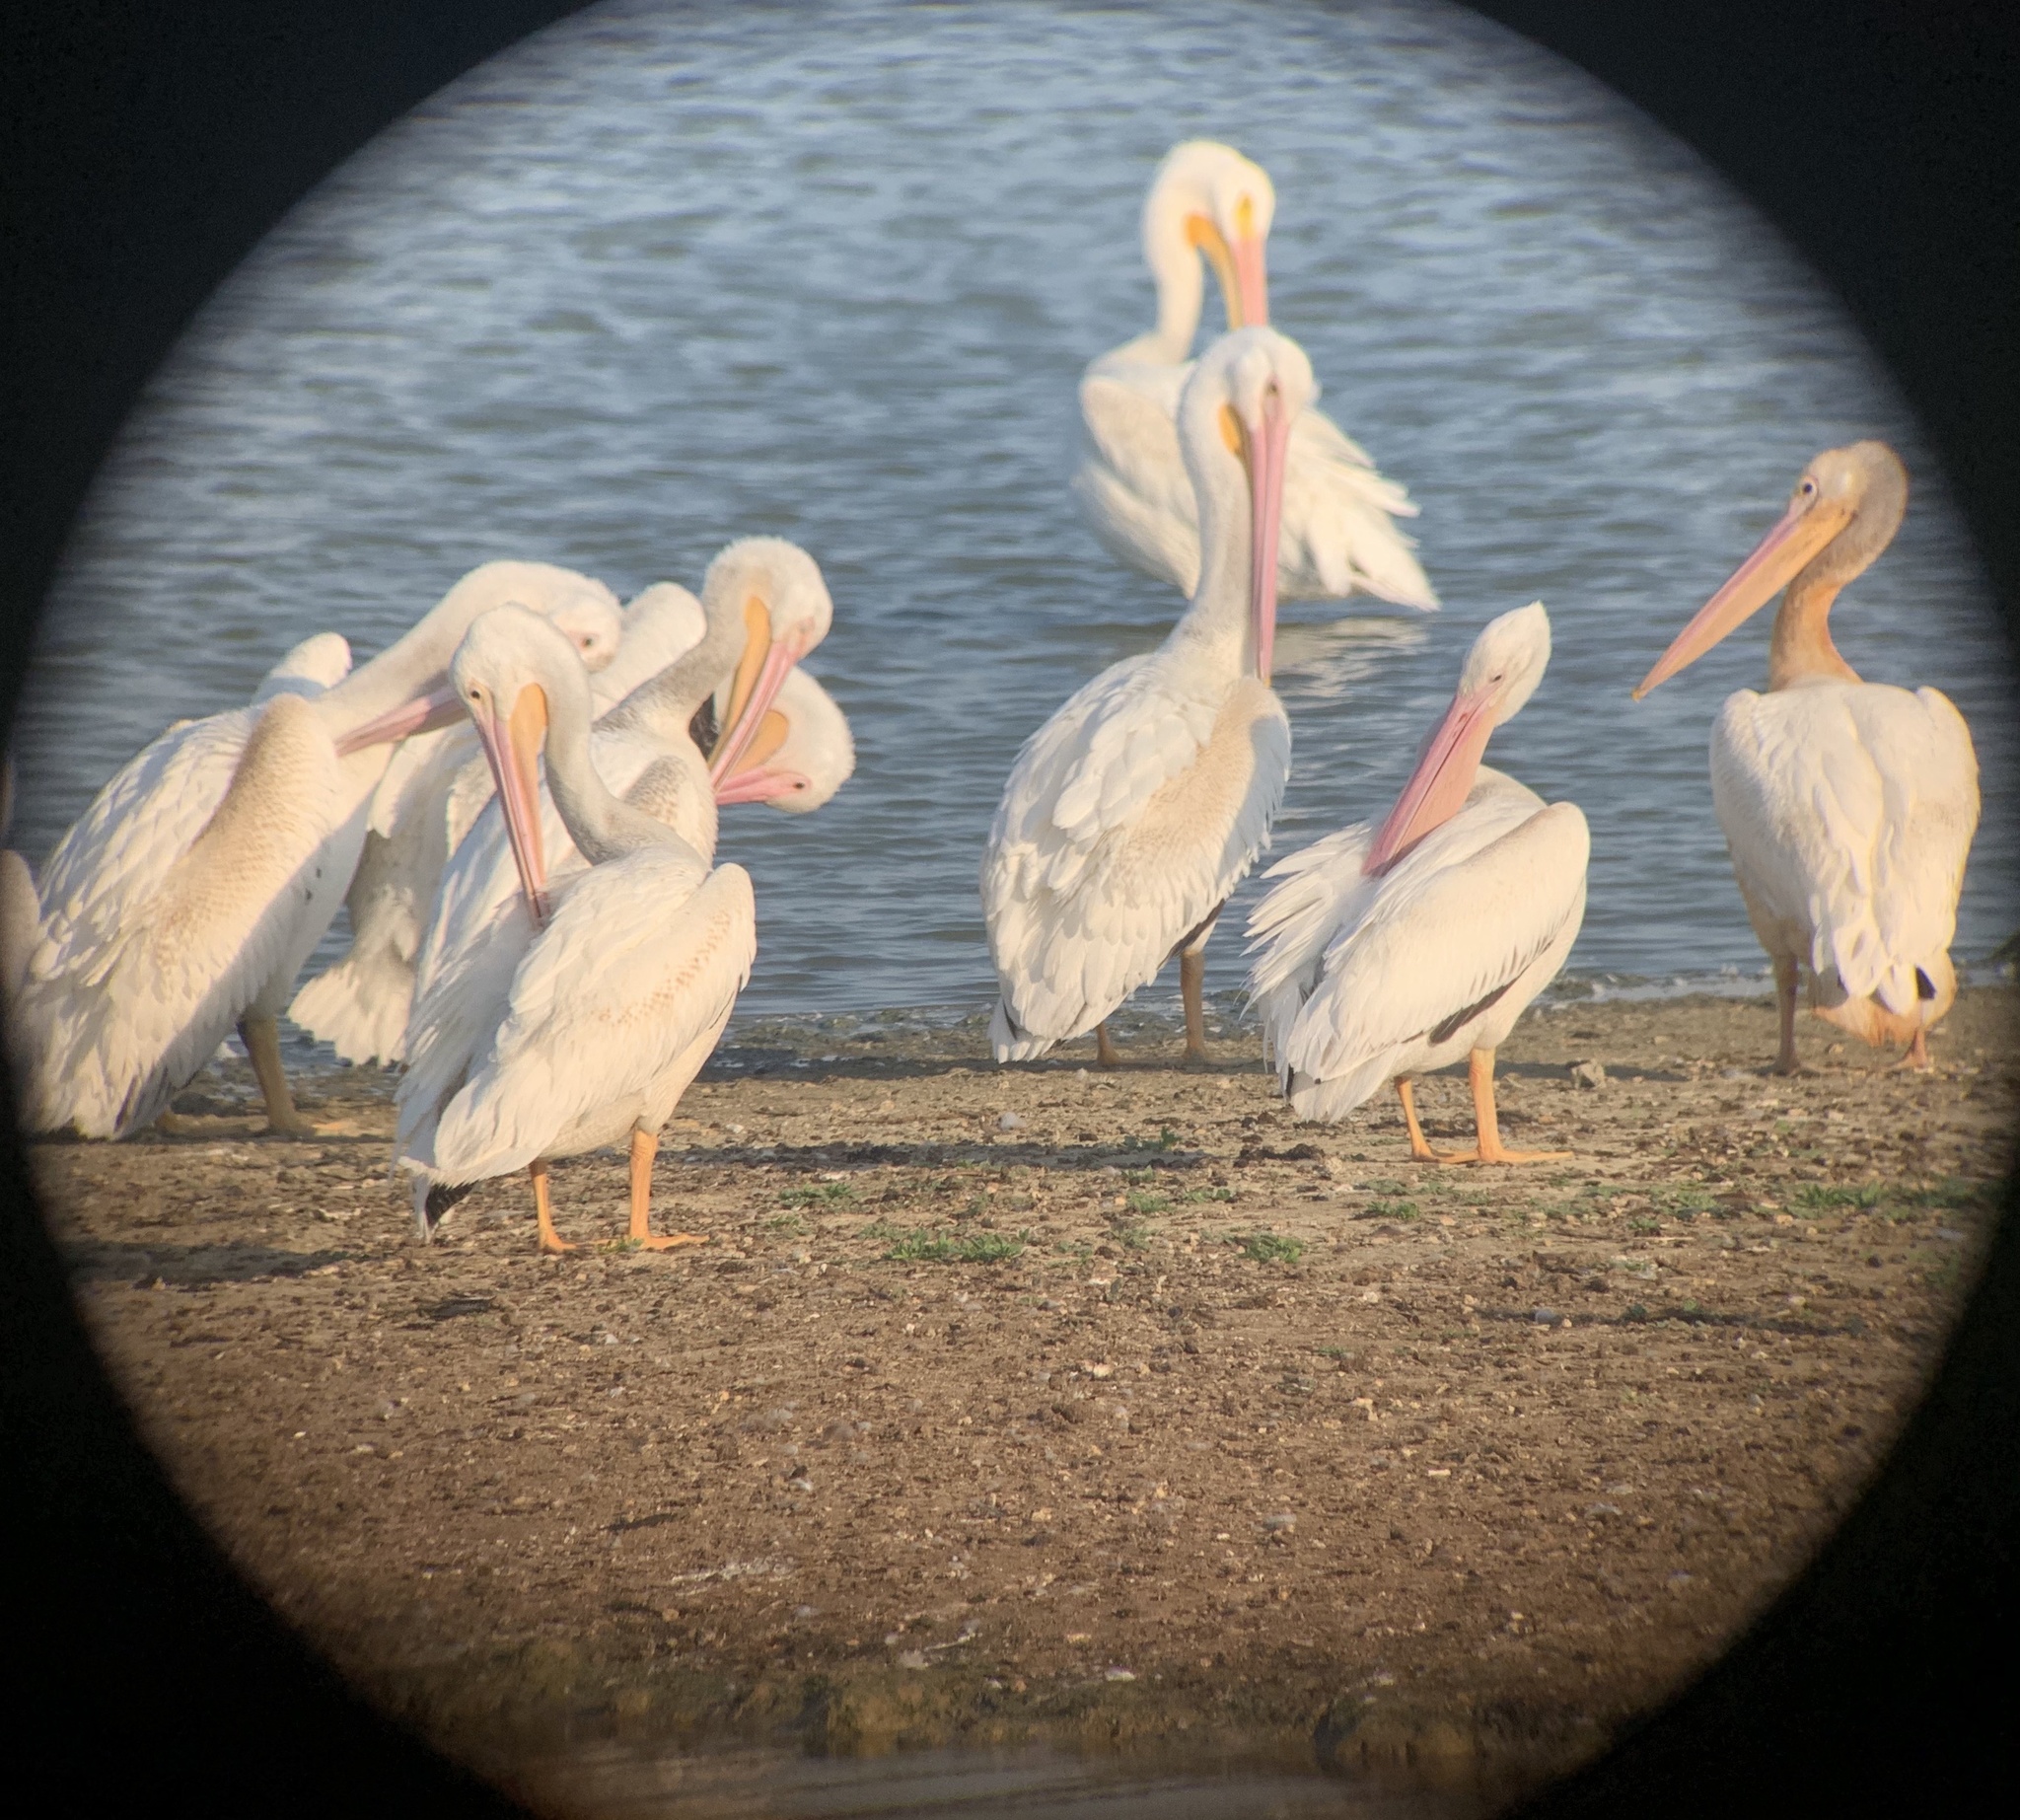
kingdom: Animalia
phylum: Chordata
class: Aves
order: Pelecaniformes
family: Pelecanidae
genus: Pelecanus
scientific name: Pelecanus erythrorhynchos
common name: American white pelican
